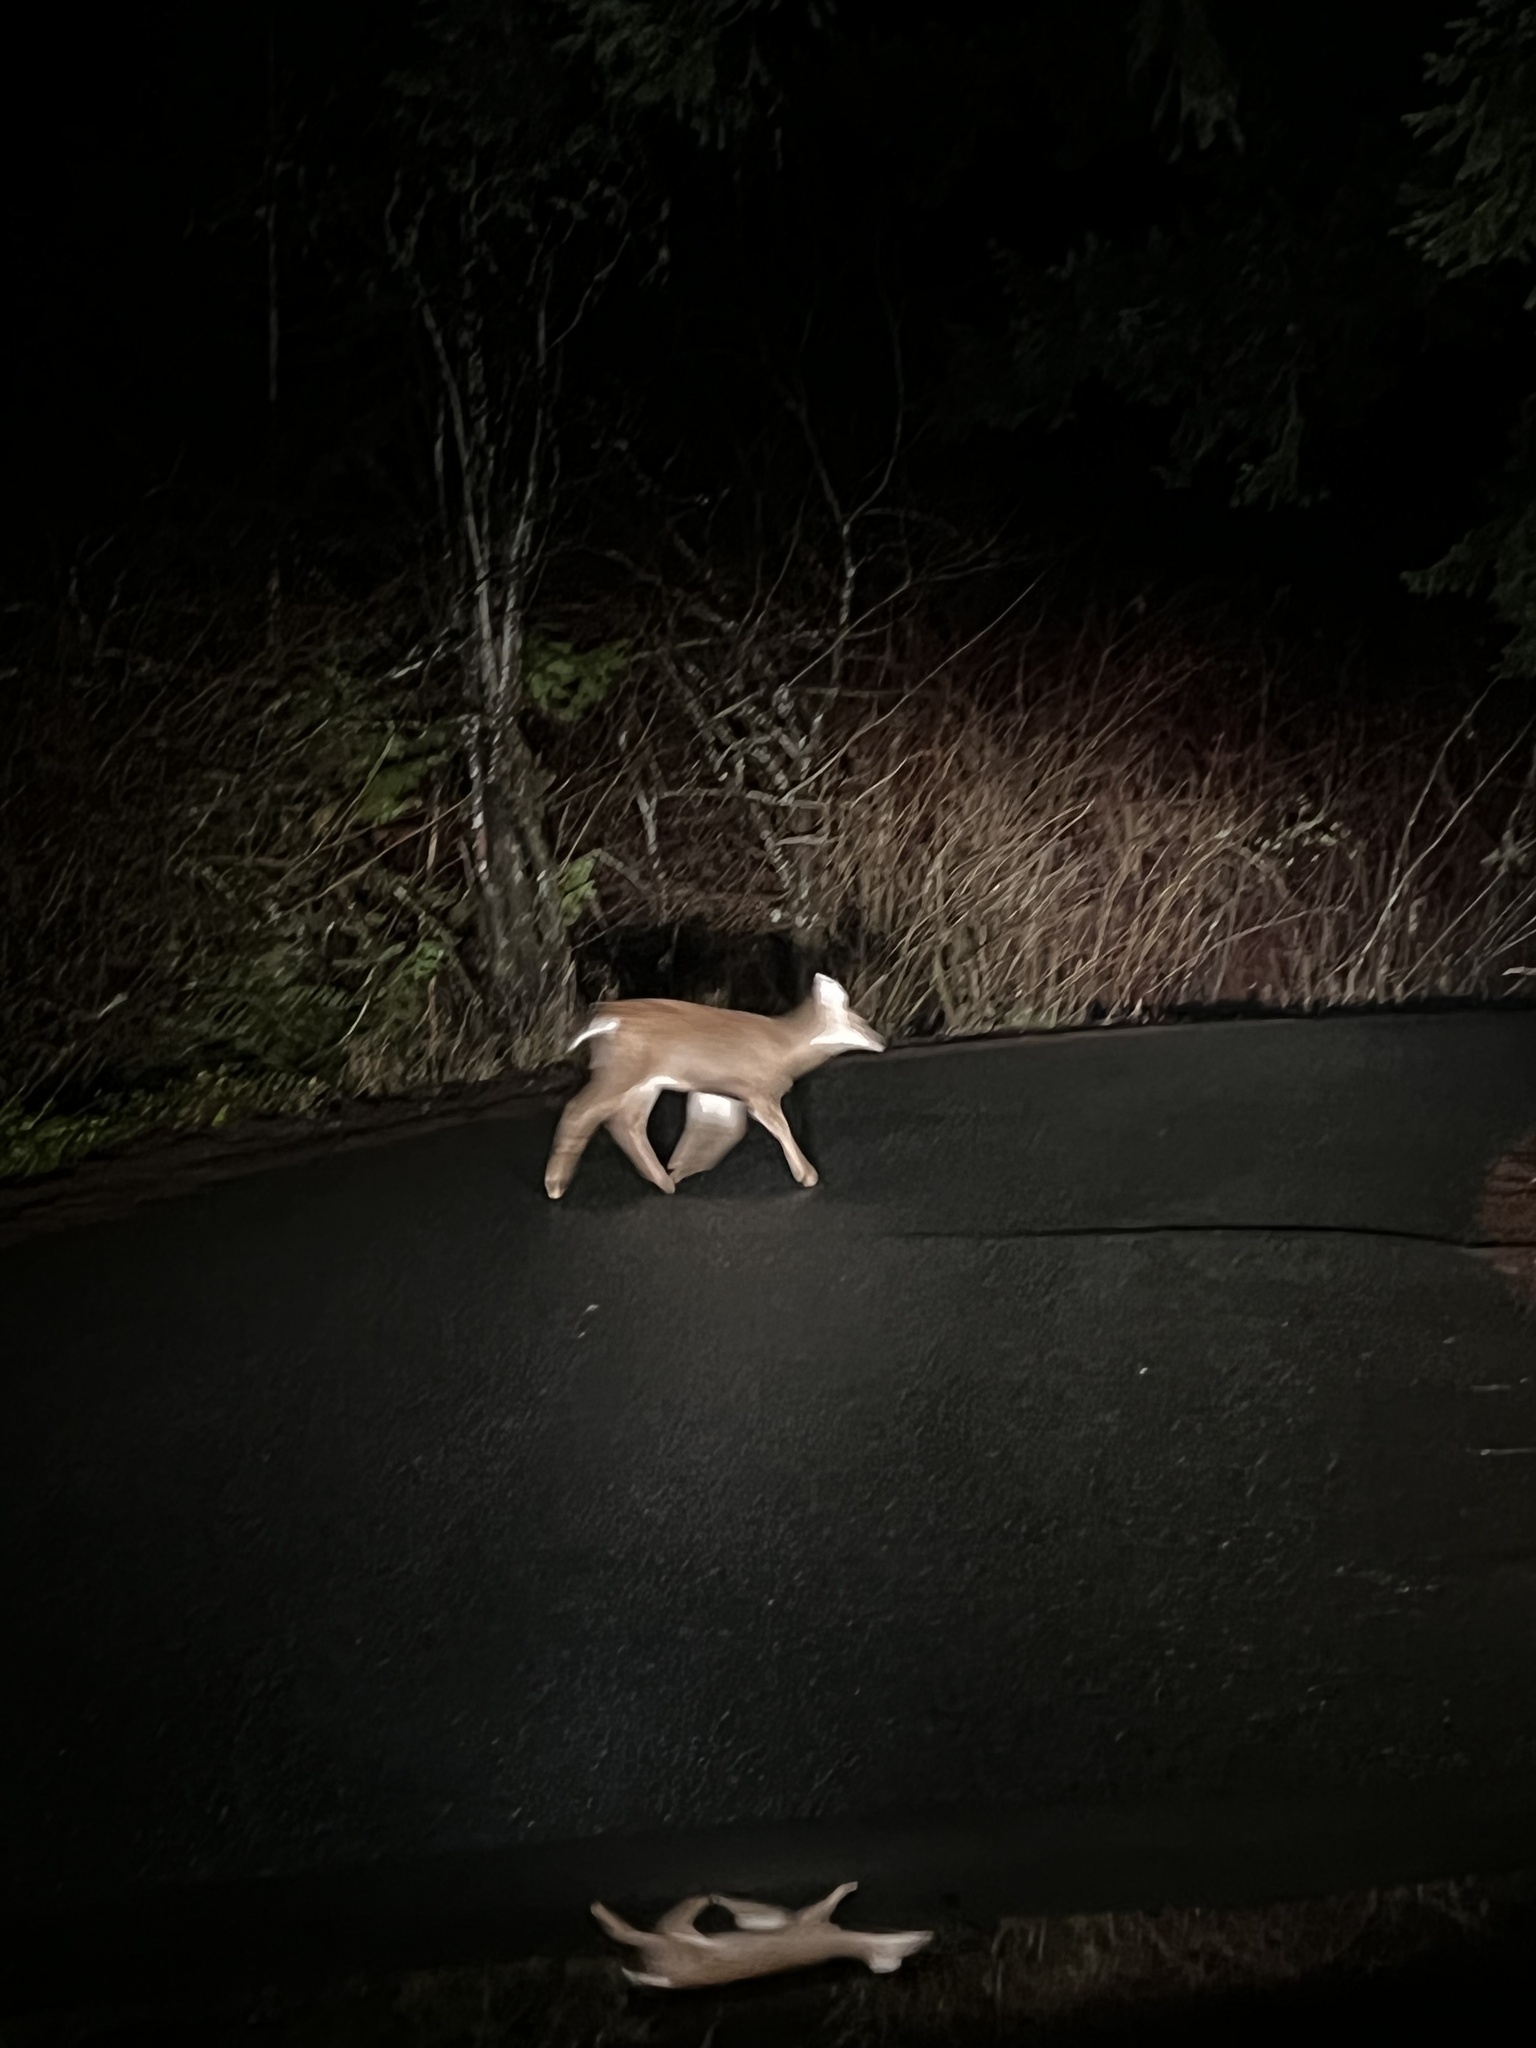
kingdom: Animalia
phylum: Chordata
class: Mammalia
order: Artiodactyla
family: Cervidae
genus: Odocoileus
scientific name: Odocoileus hemionus
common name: Mule deer
